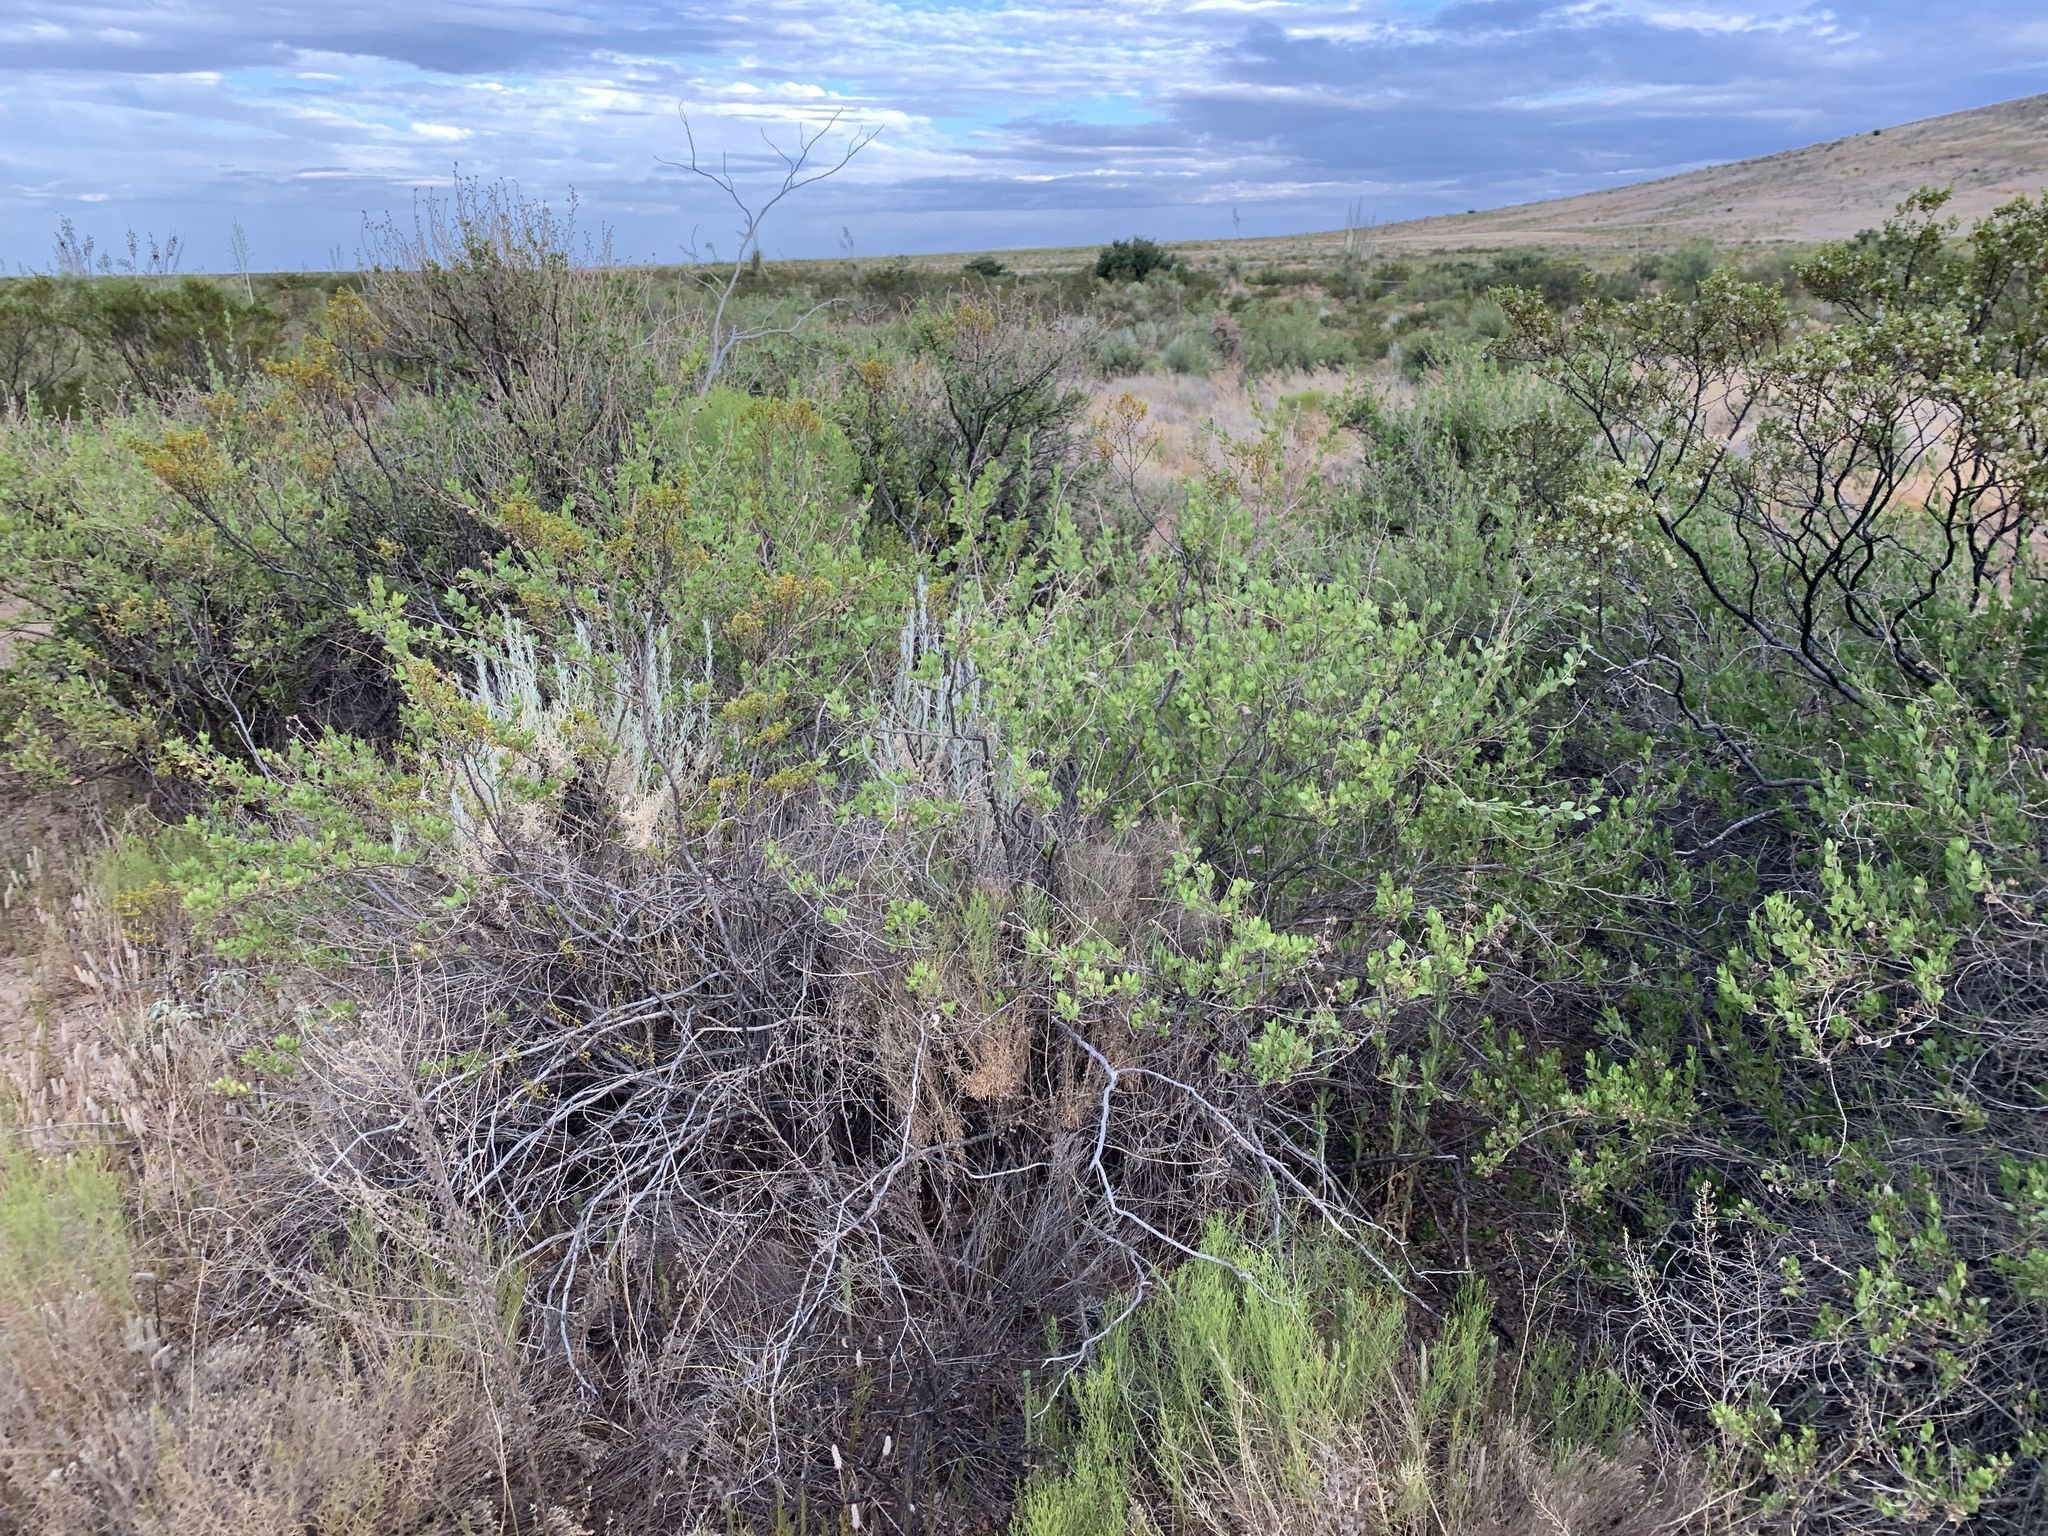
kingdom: Plantae
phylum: Tracheophyta
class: Magnoliopsida
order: Asterales
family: Asteraceae
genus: Flourensia
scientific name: Flourensia cernua
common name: Varnishbush
